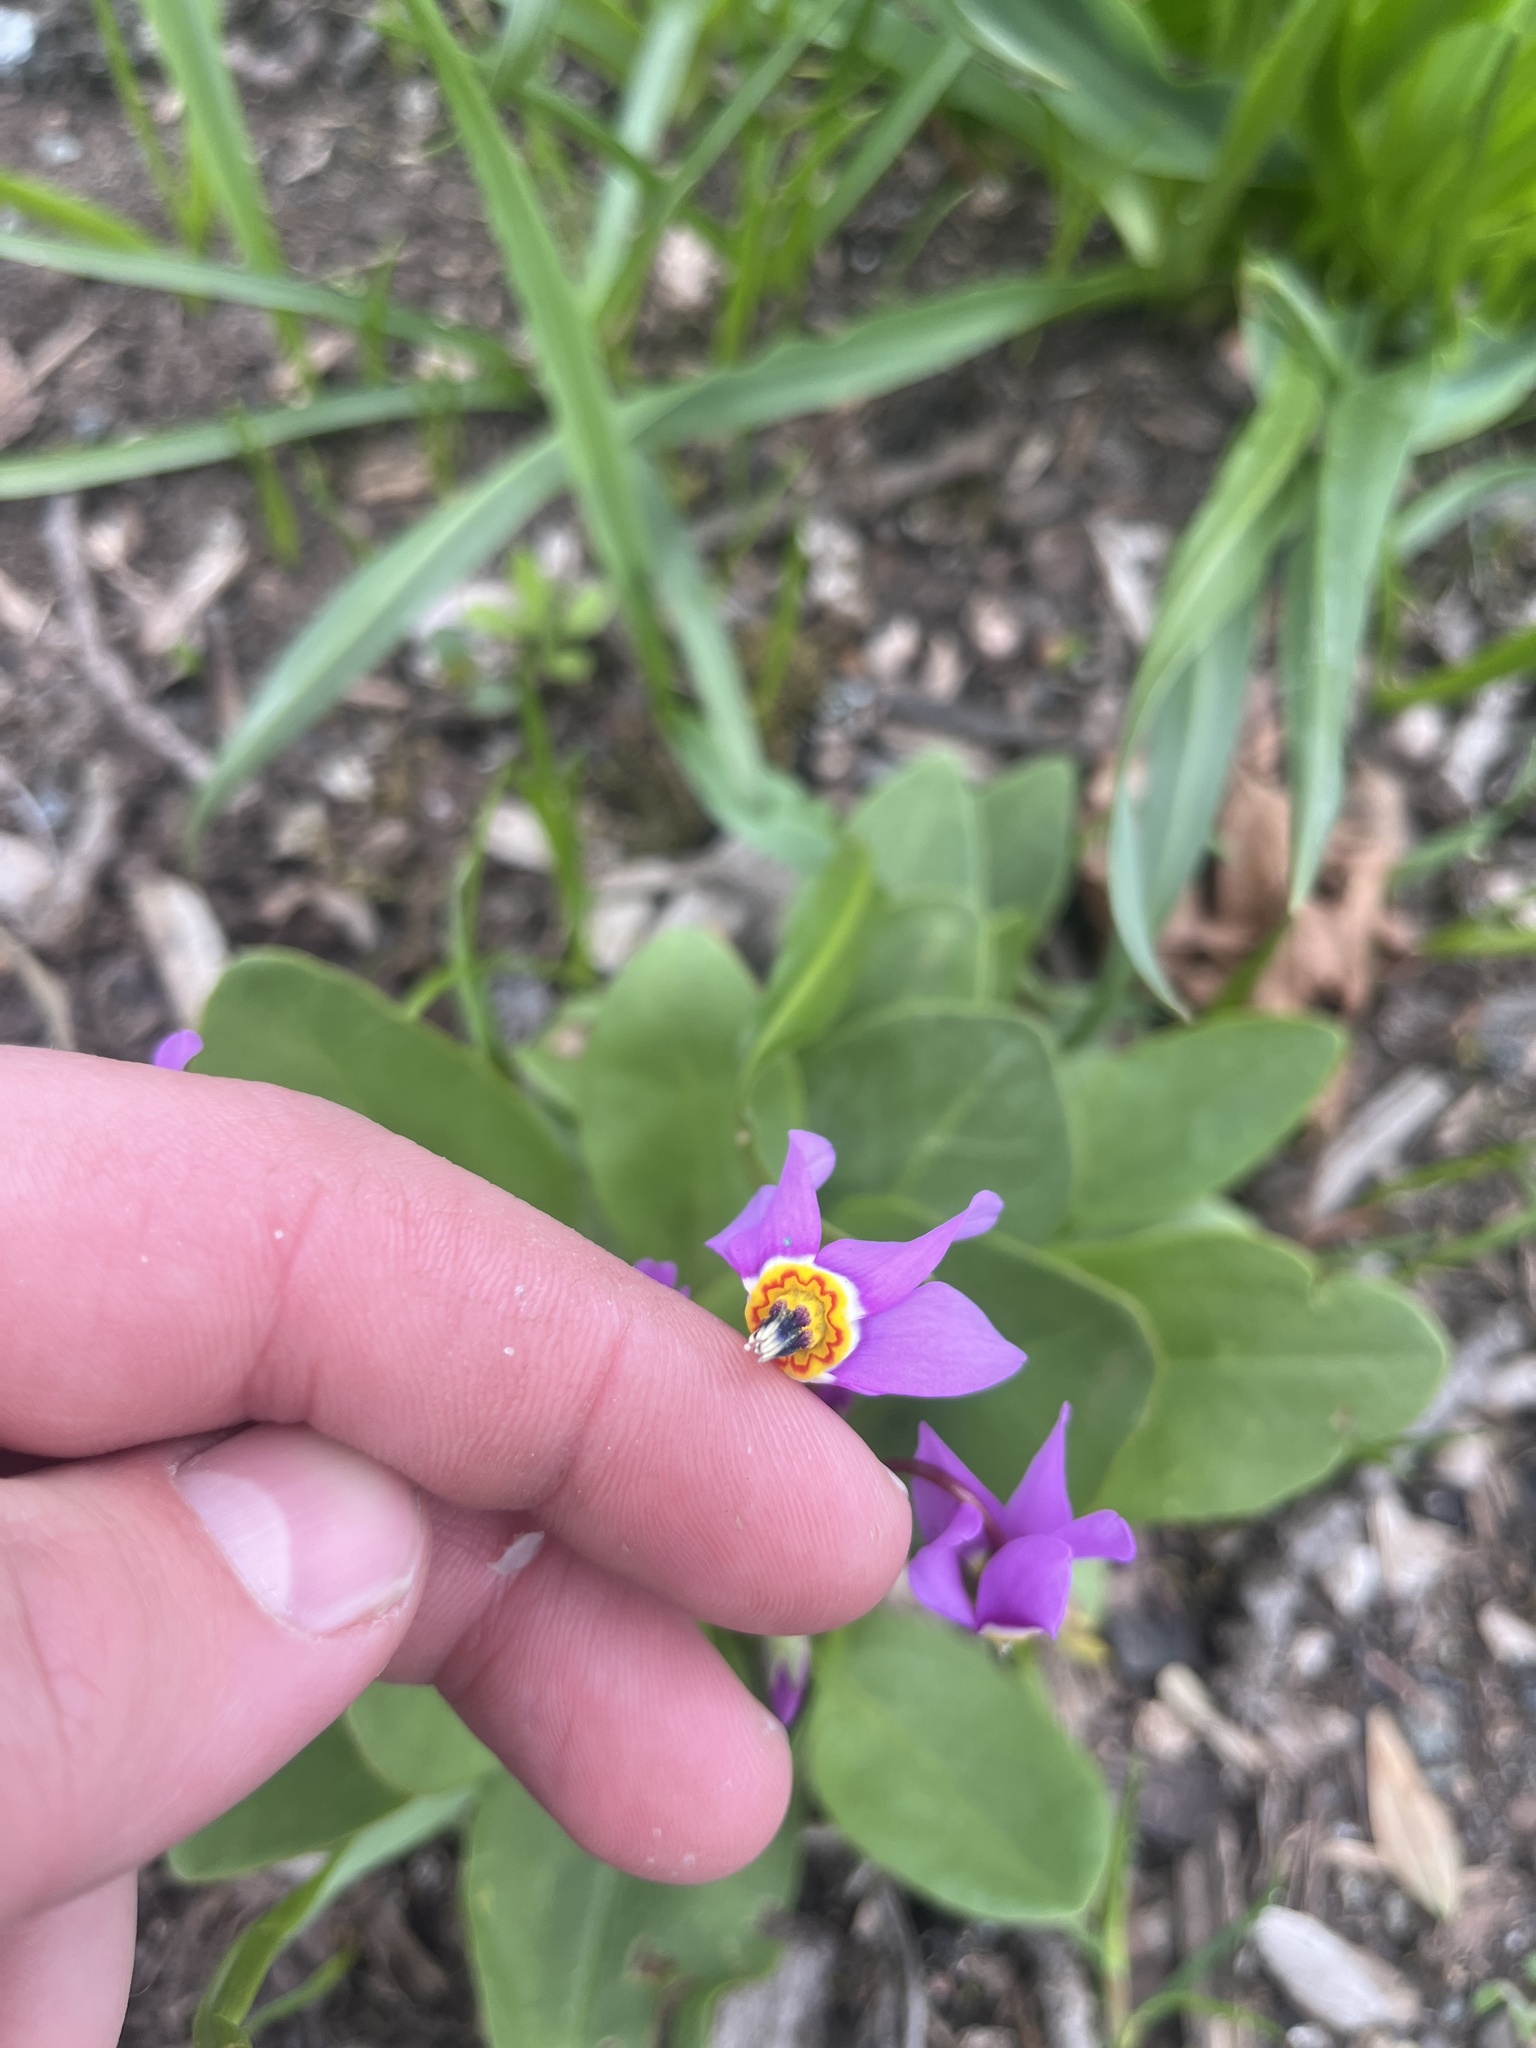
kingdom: Plantae
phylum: Tracheophyta
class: Magnoliopsida
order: Ericales
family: Primulaceae
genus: Dodecatheon
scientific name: Dodecatheon pulchellum
